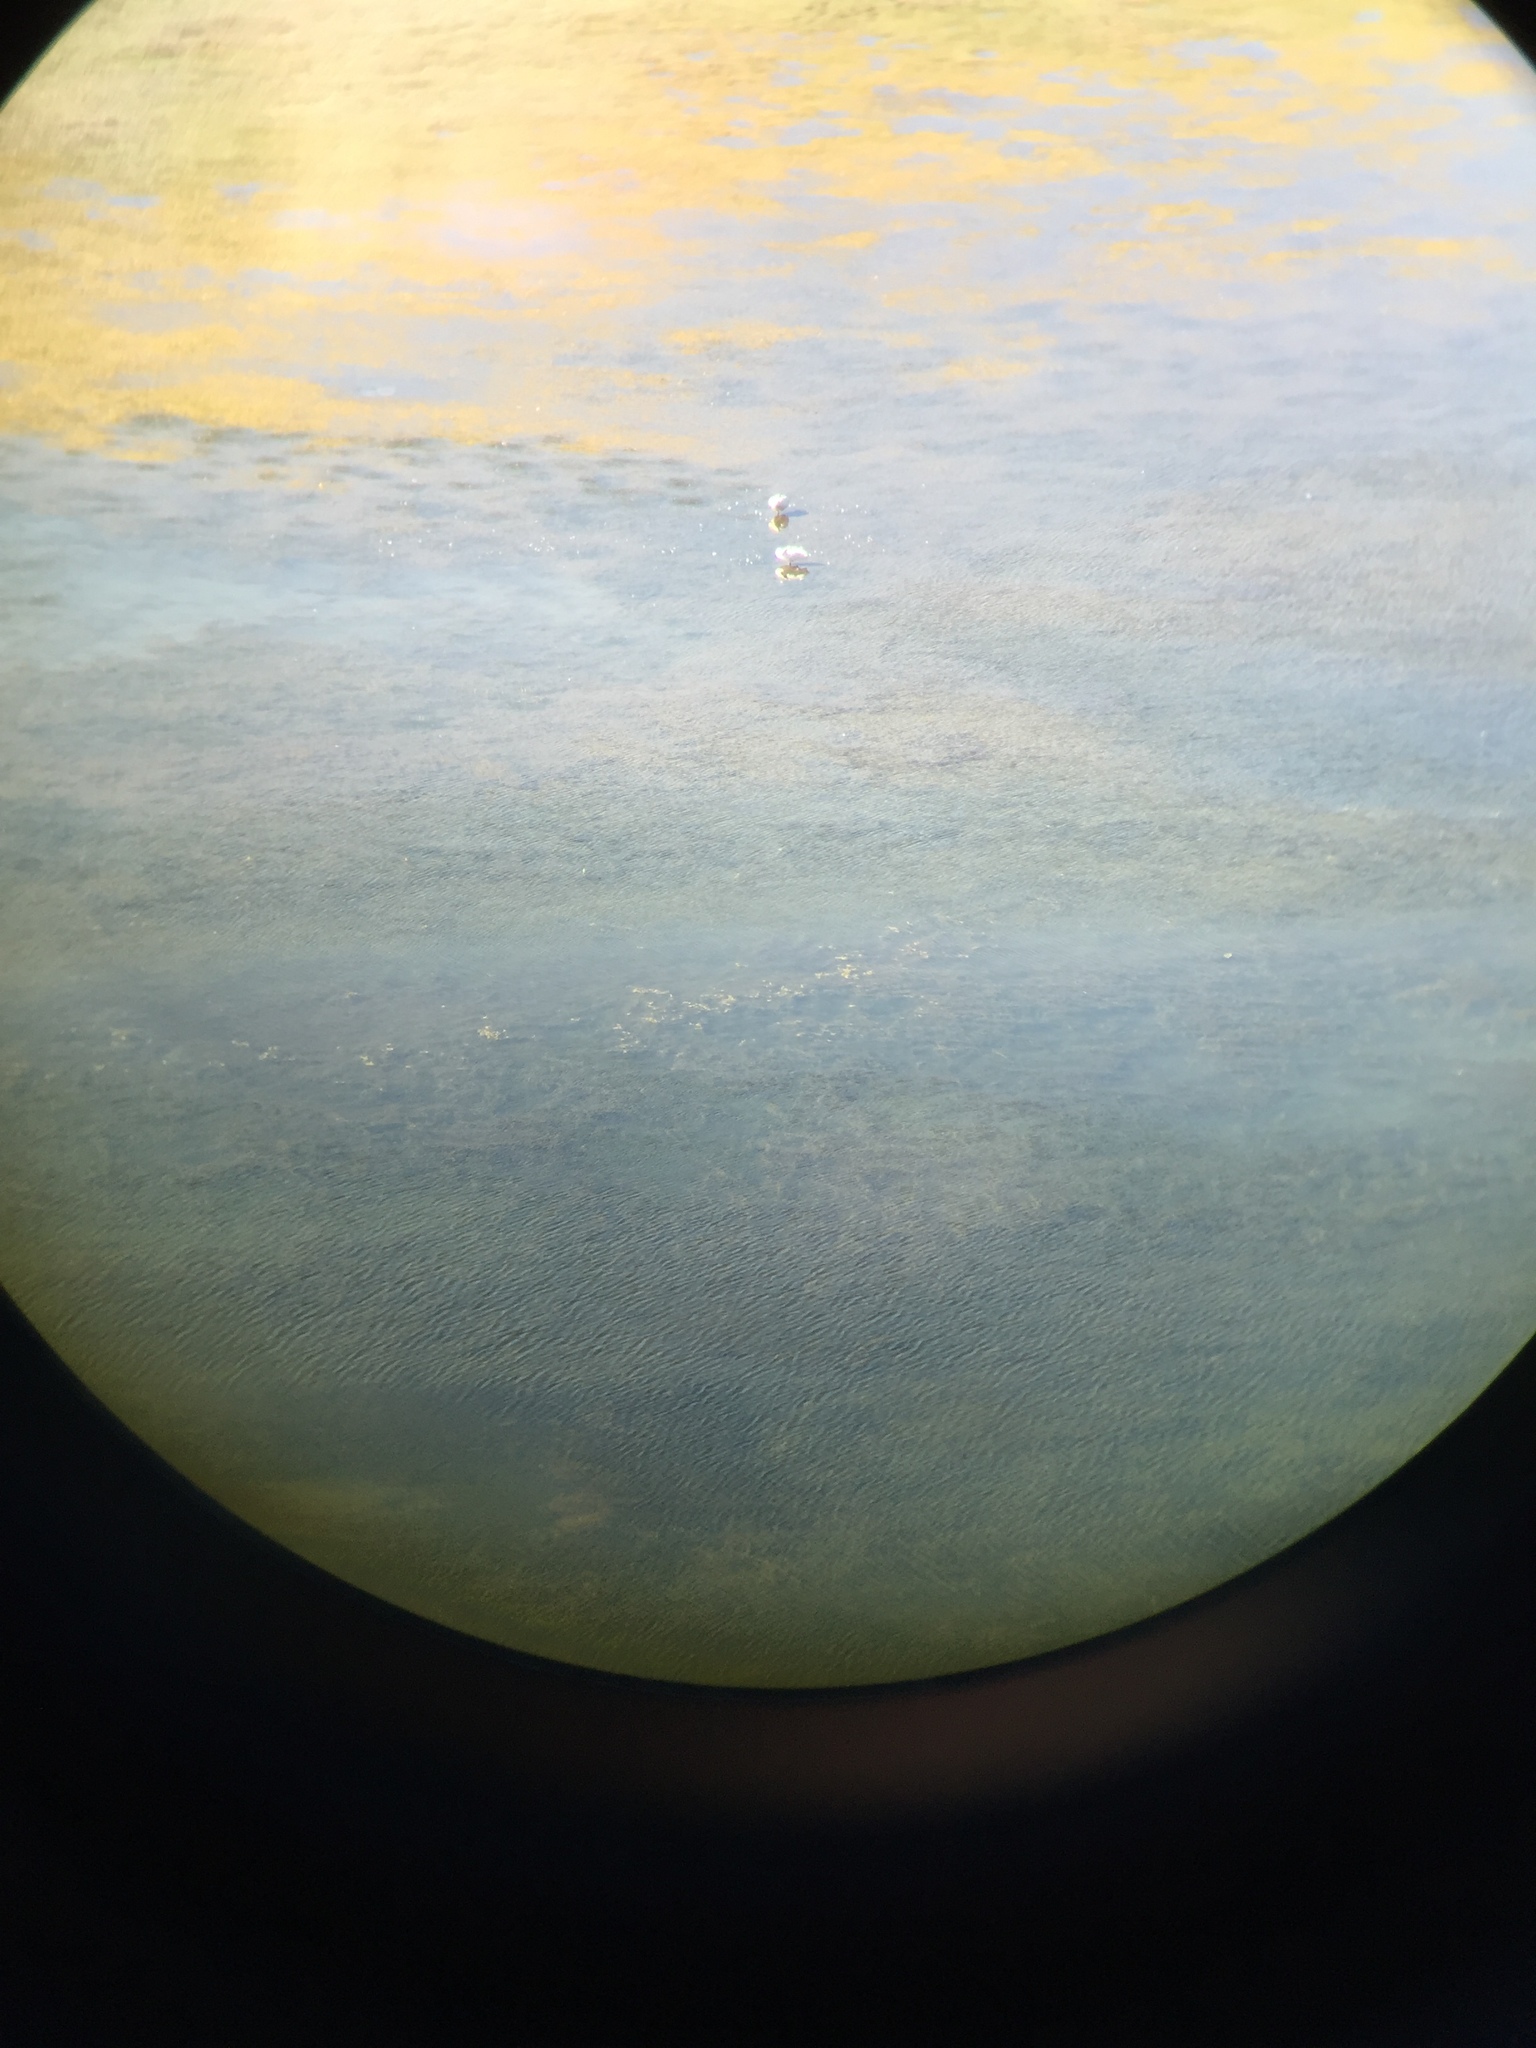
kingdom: Animalia
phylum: Chordata
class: Aves
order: Anseriformes
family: Anatidae
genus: Cygnus
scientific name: Cygnus buccinator
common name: Trumpeter swan
